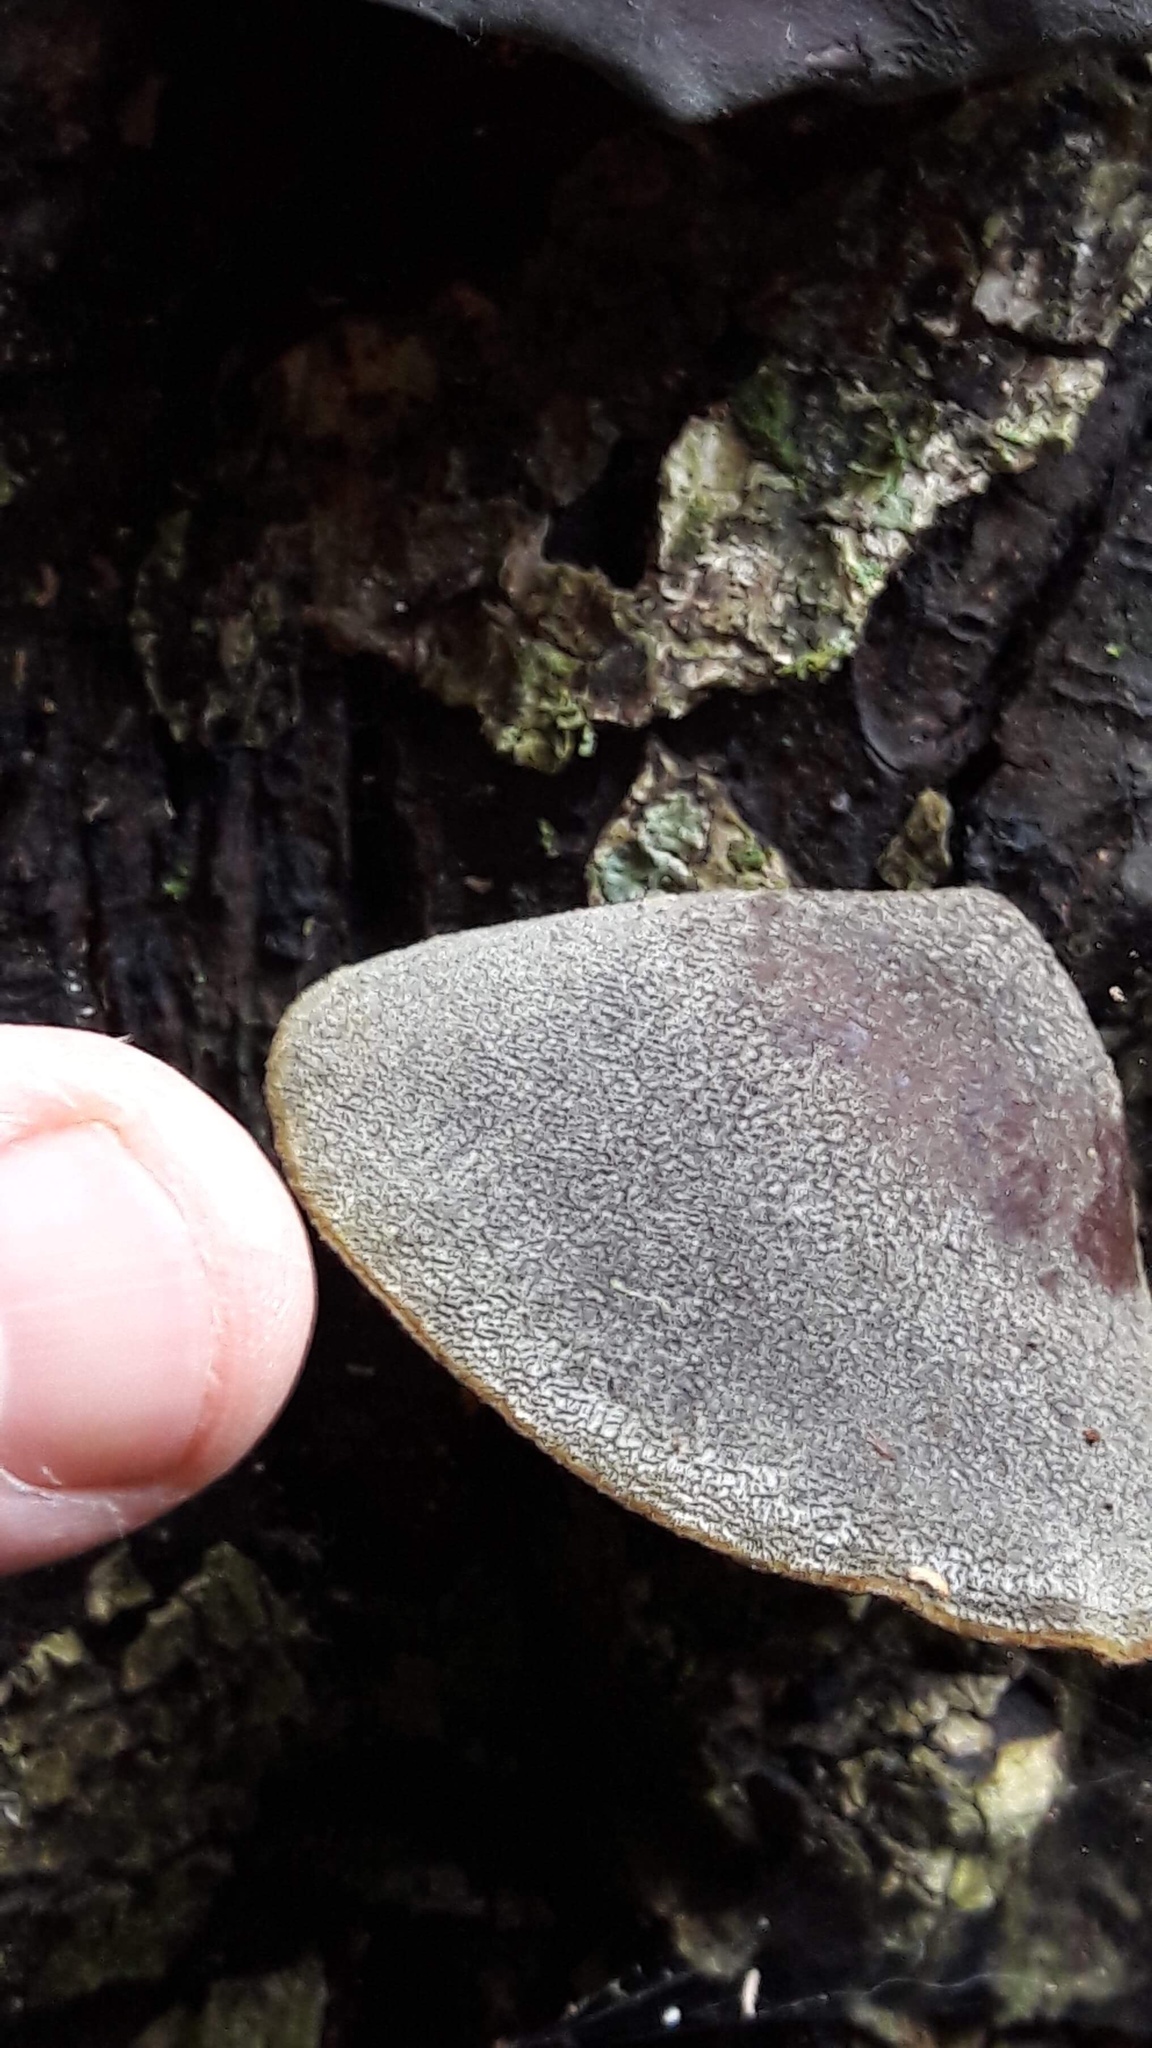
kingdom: Fungi
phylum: Basidiomycota
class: Agaricomycetes
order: Auriculariales
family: Auriculariaceae
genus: Auricularia
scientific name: Auricularia cornea
